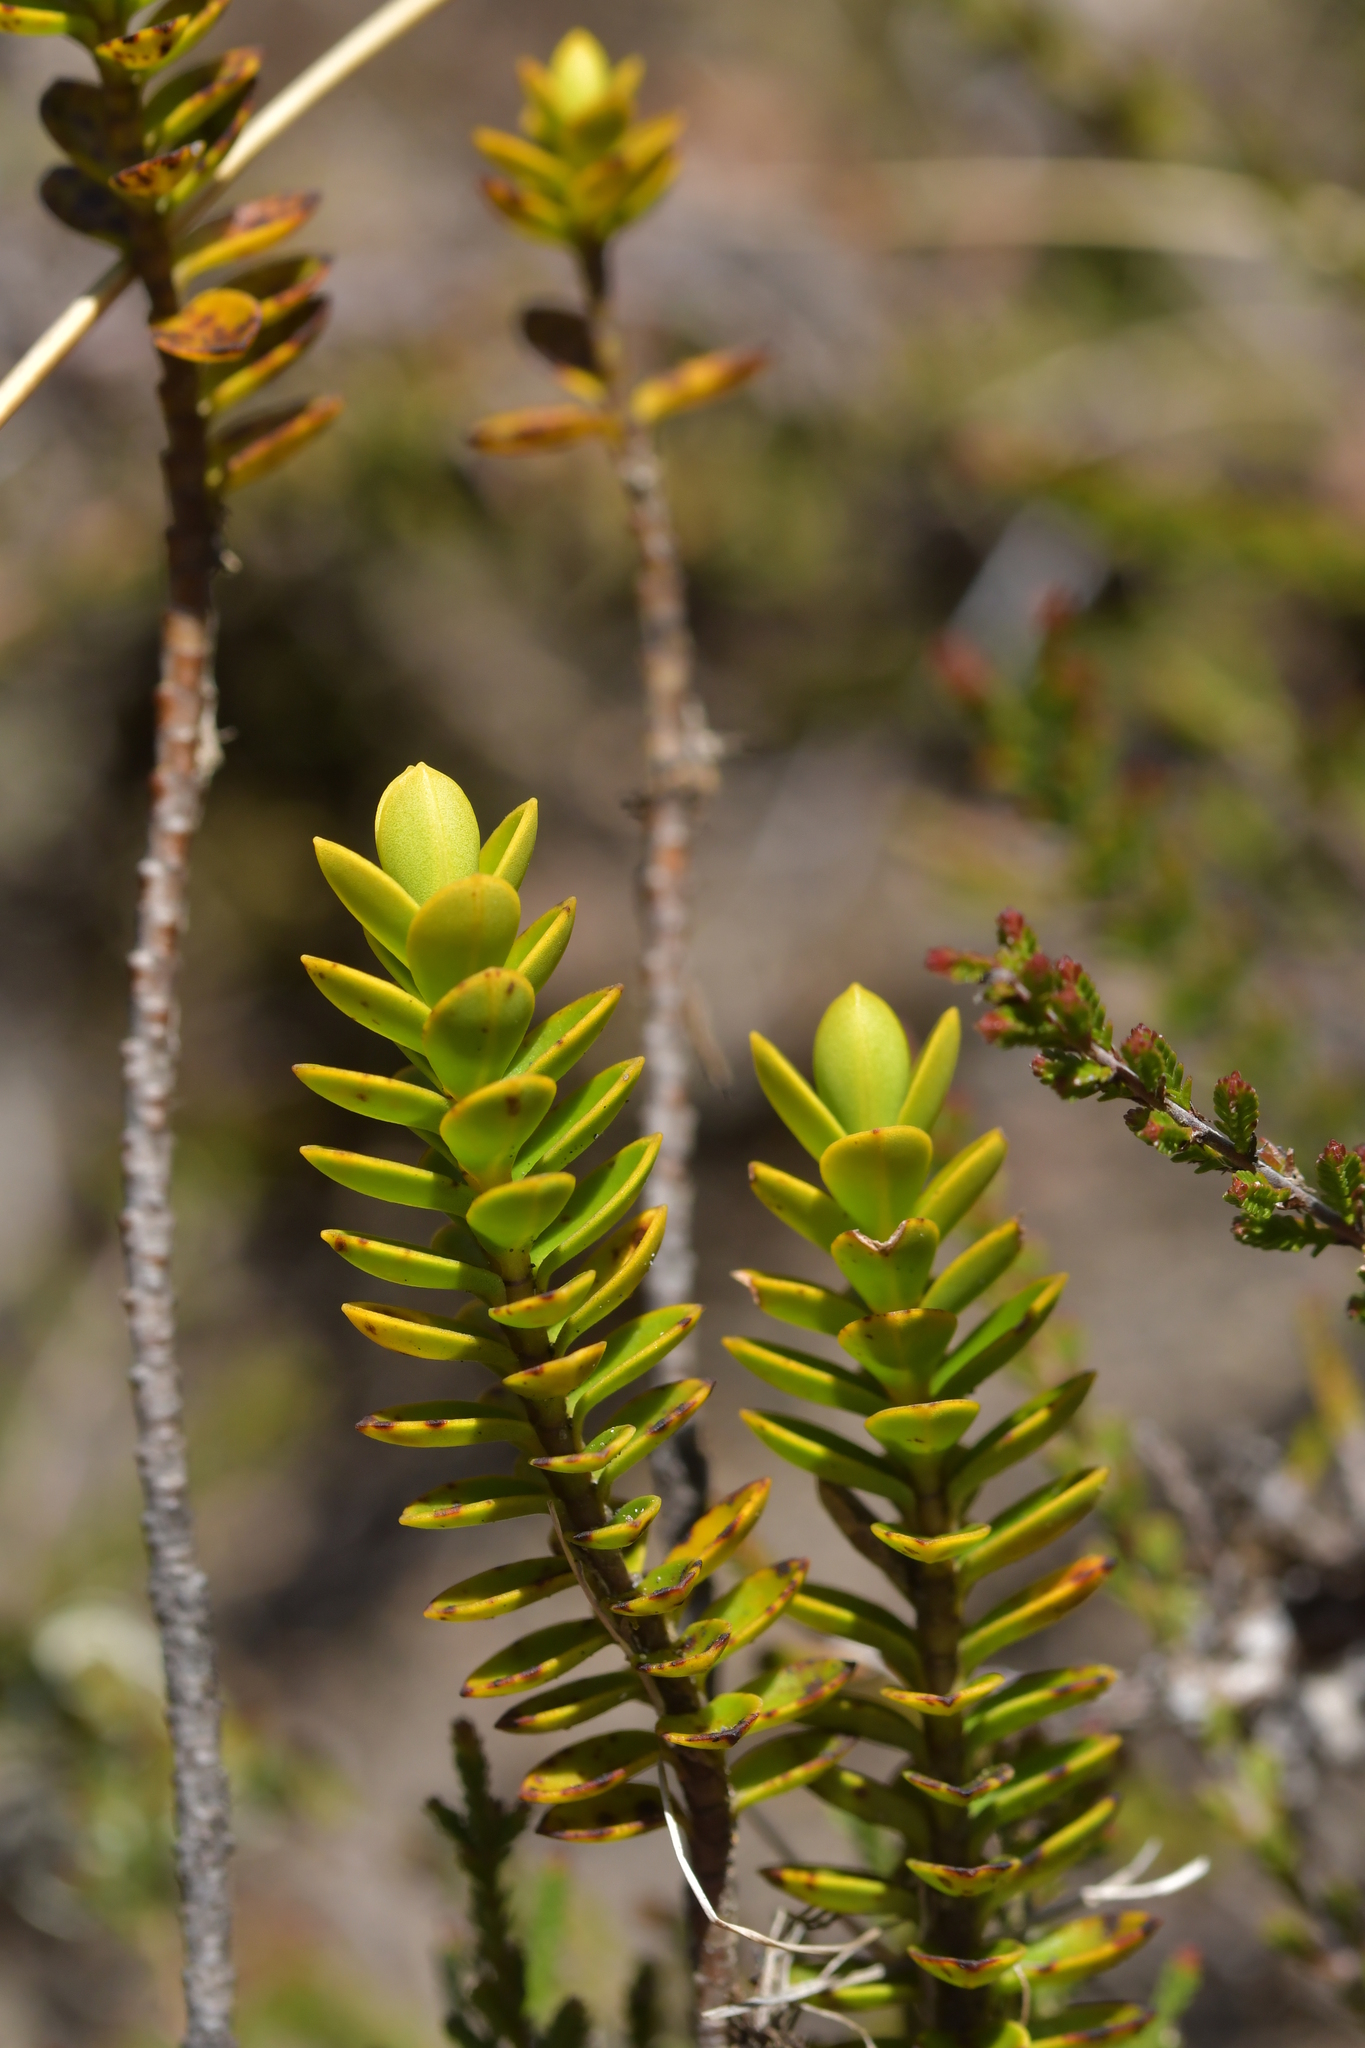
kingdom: Plantae
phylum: Tracheophyta
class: Magnoliopsida
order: Lamiales
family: Plantaginaceae
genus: Veronica
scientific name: Veronica venustula
